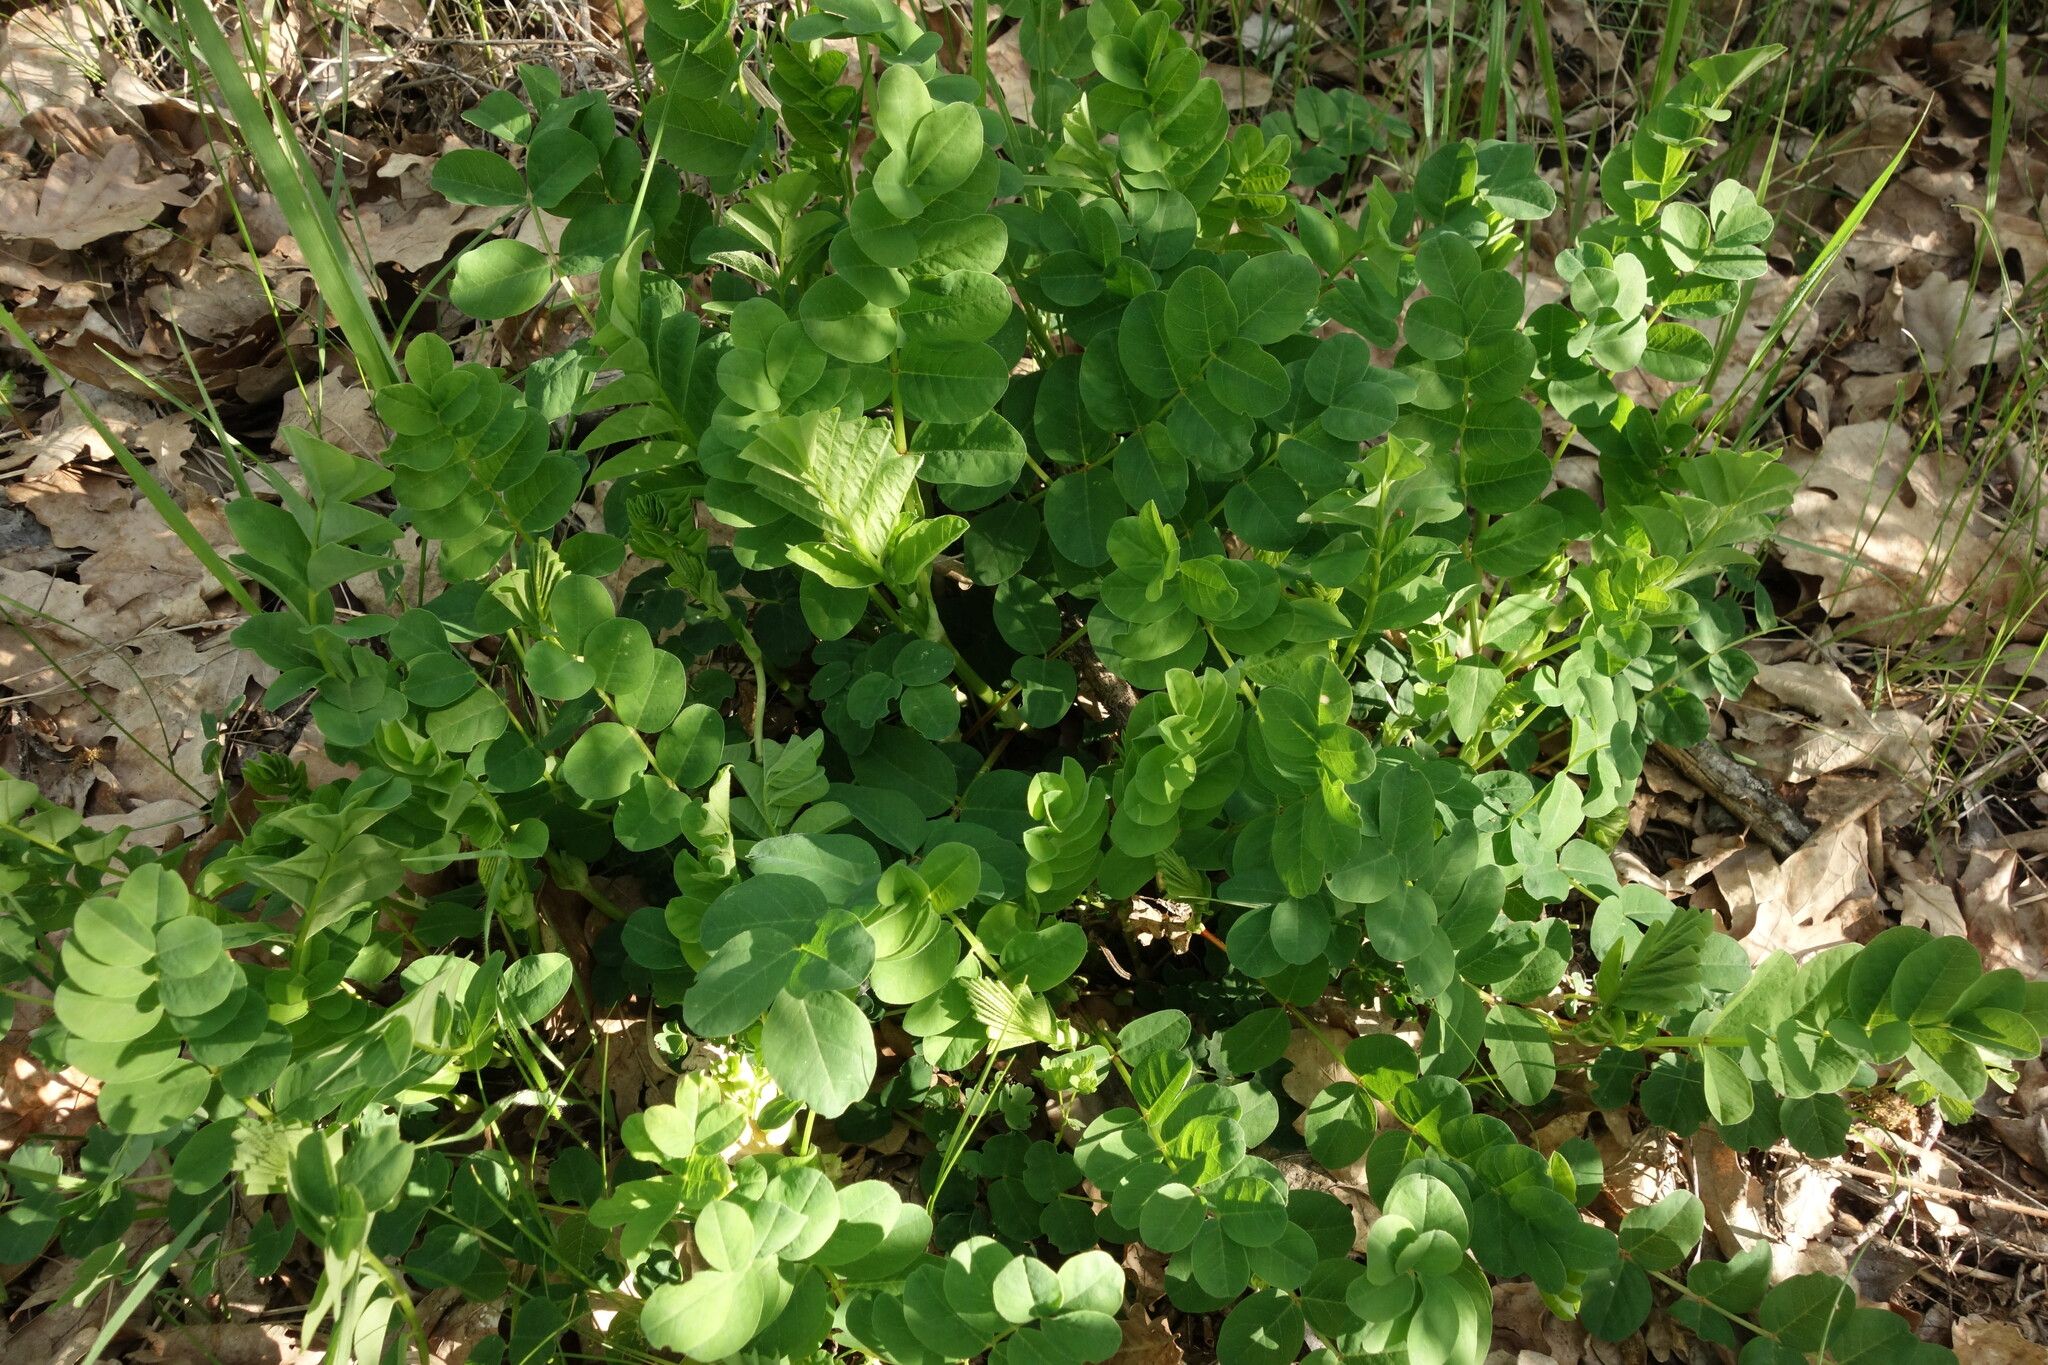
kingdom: Plantae
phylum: Tracheophyta
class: Magnoliopsida
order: Fabales
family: Fabaceae
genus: Astragalus
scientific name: Astragalus glycyphyllos
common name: Wild liquorice
